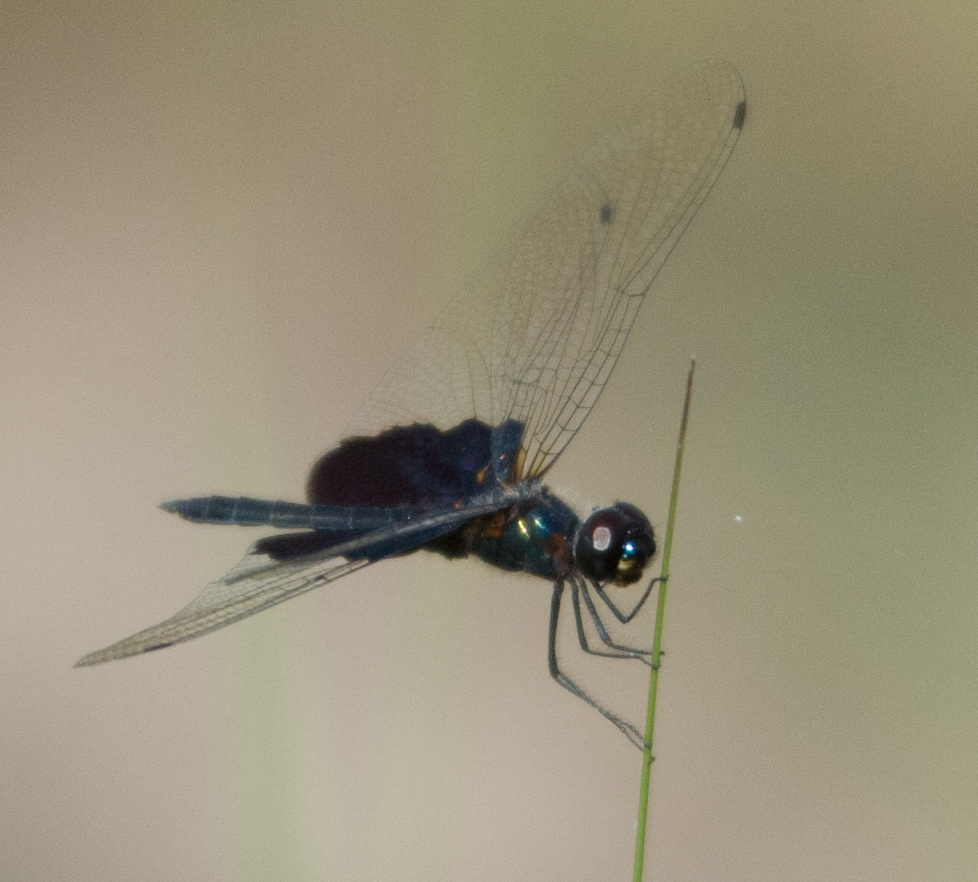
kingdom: Animalia
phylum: Arthropoda
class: Insecta
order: Odonata
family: Libellulidae
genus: Rhyothemis
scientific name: Rhyothemis semihyalina
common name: Phantom flutterer
